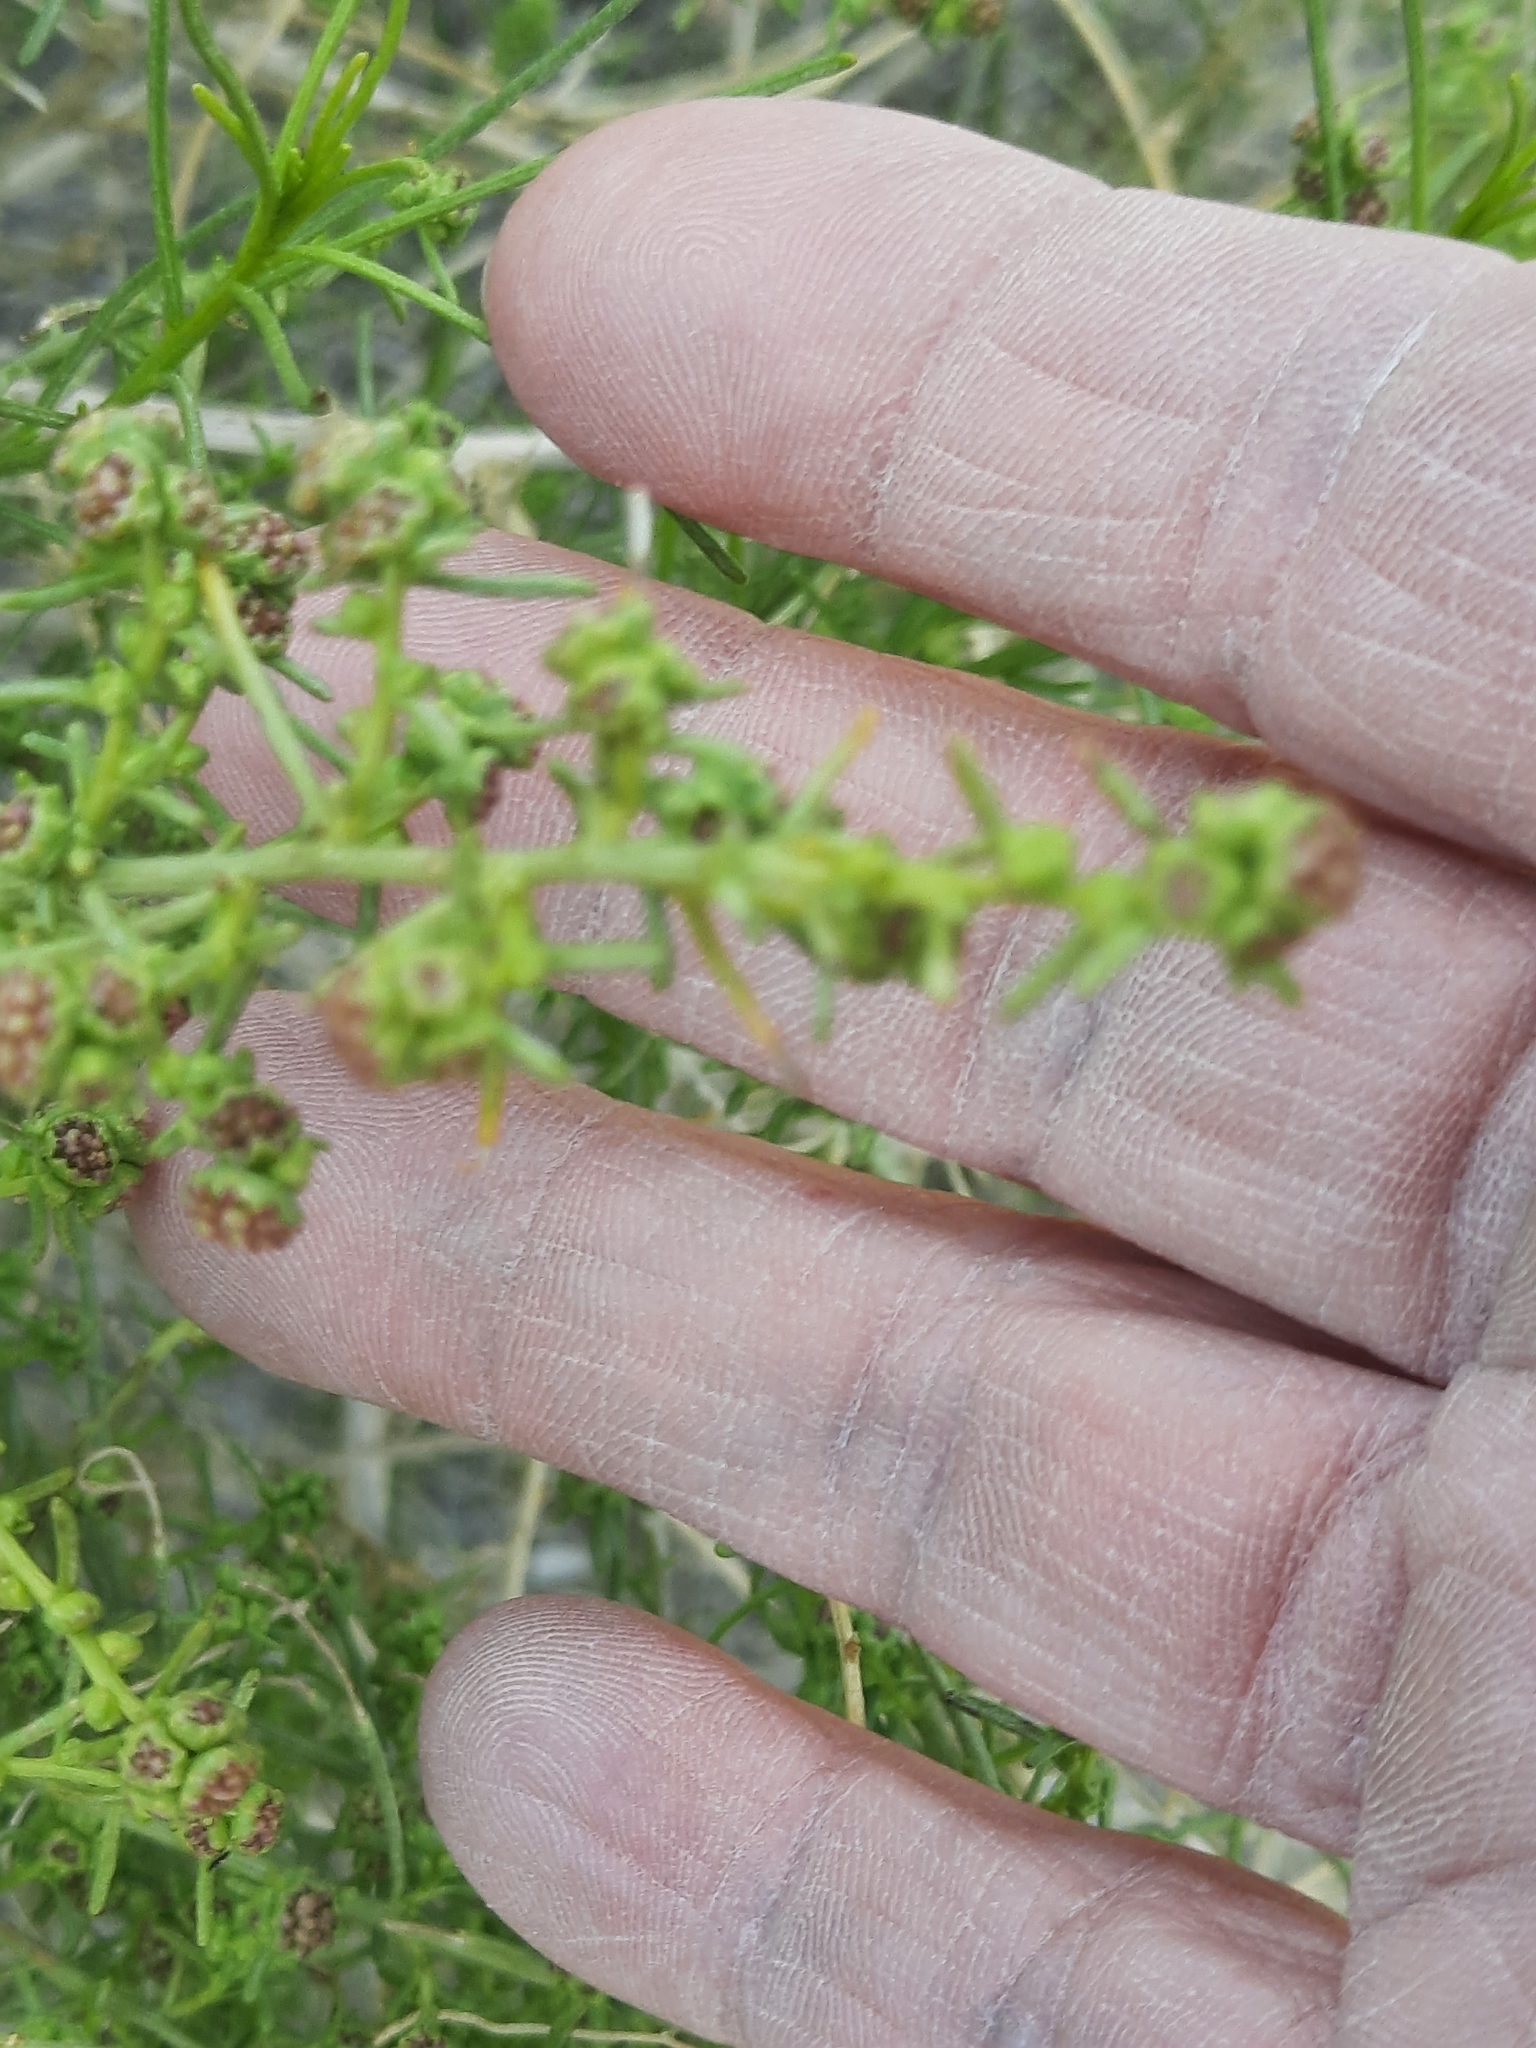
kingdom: Plantae
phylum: Tracheophyta
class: Magnoliopsida
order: Asterales
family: Asteraceae
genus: Ambrosia
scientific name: Ambrosia salsola
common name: Burrobrush
